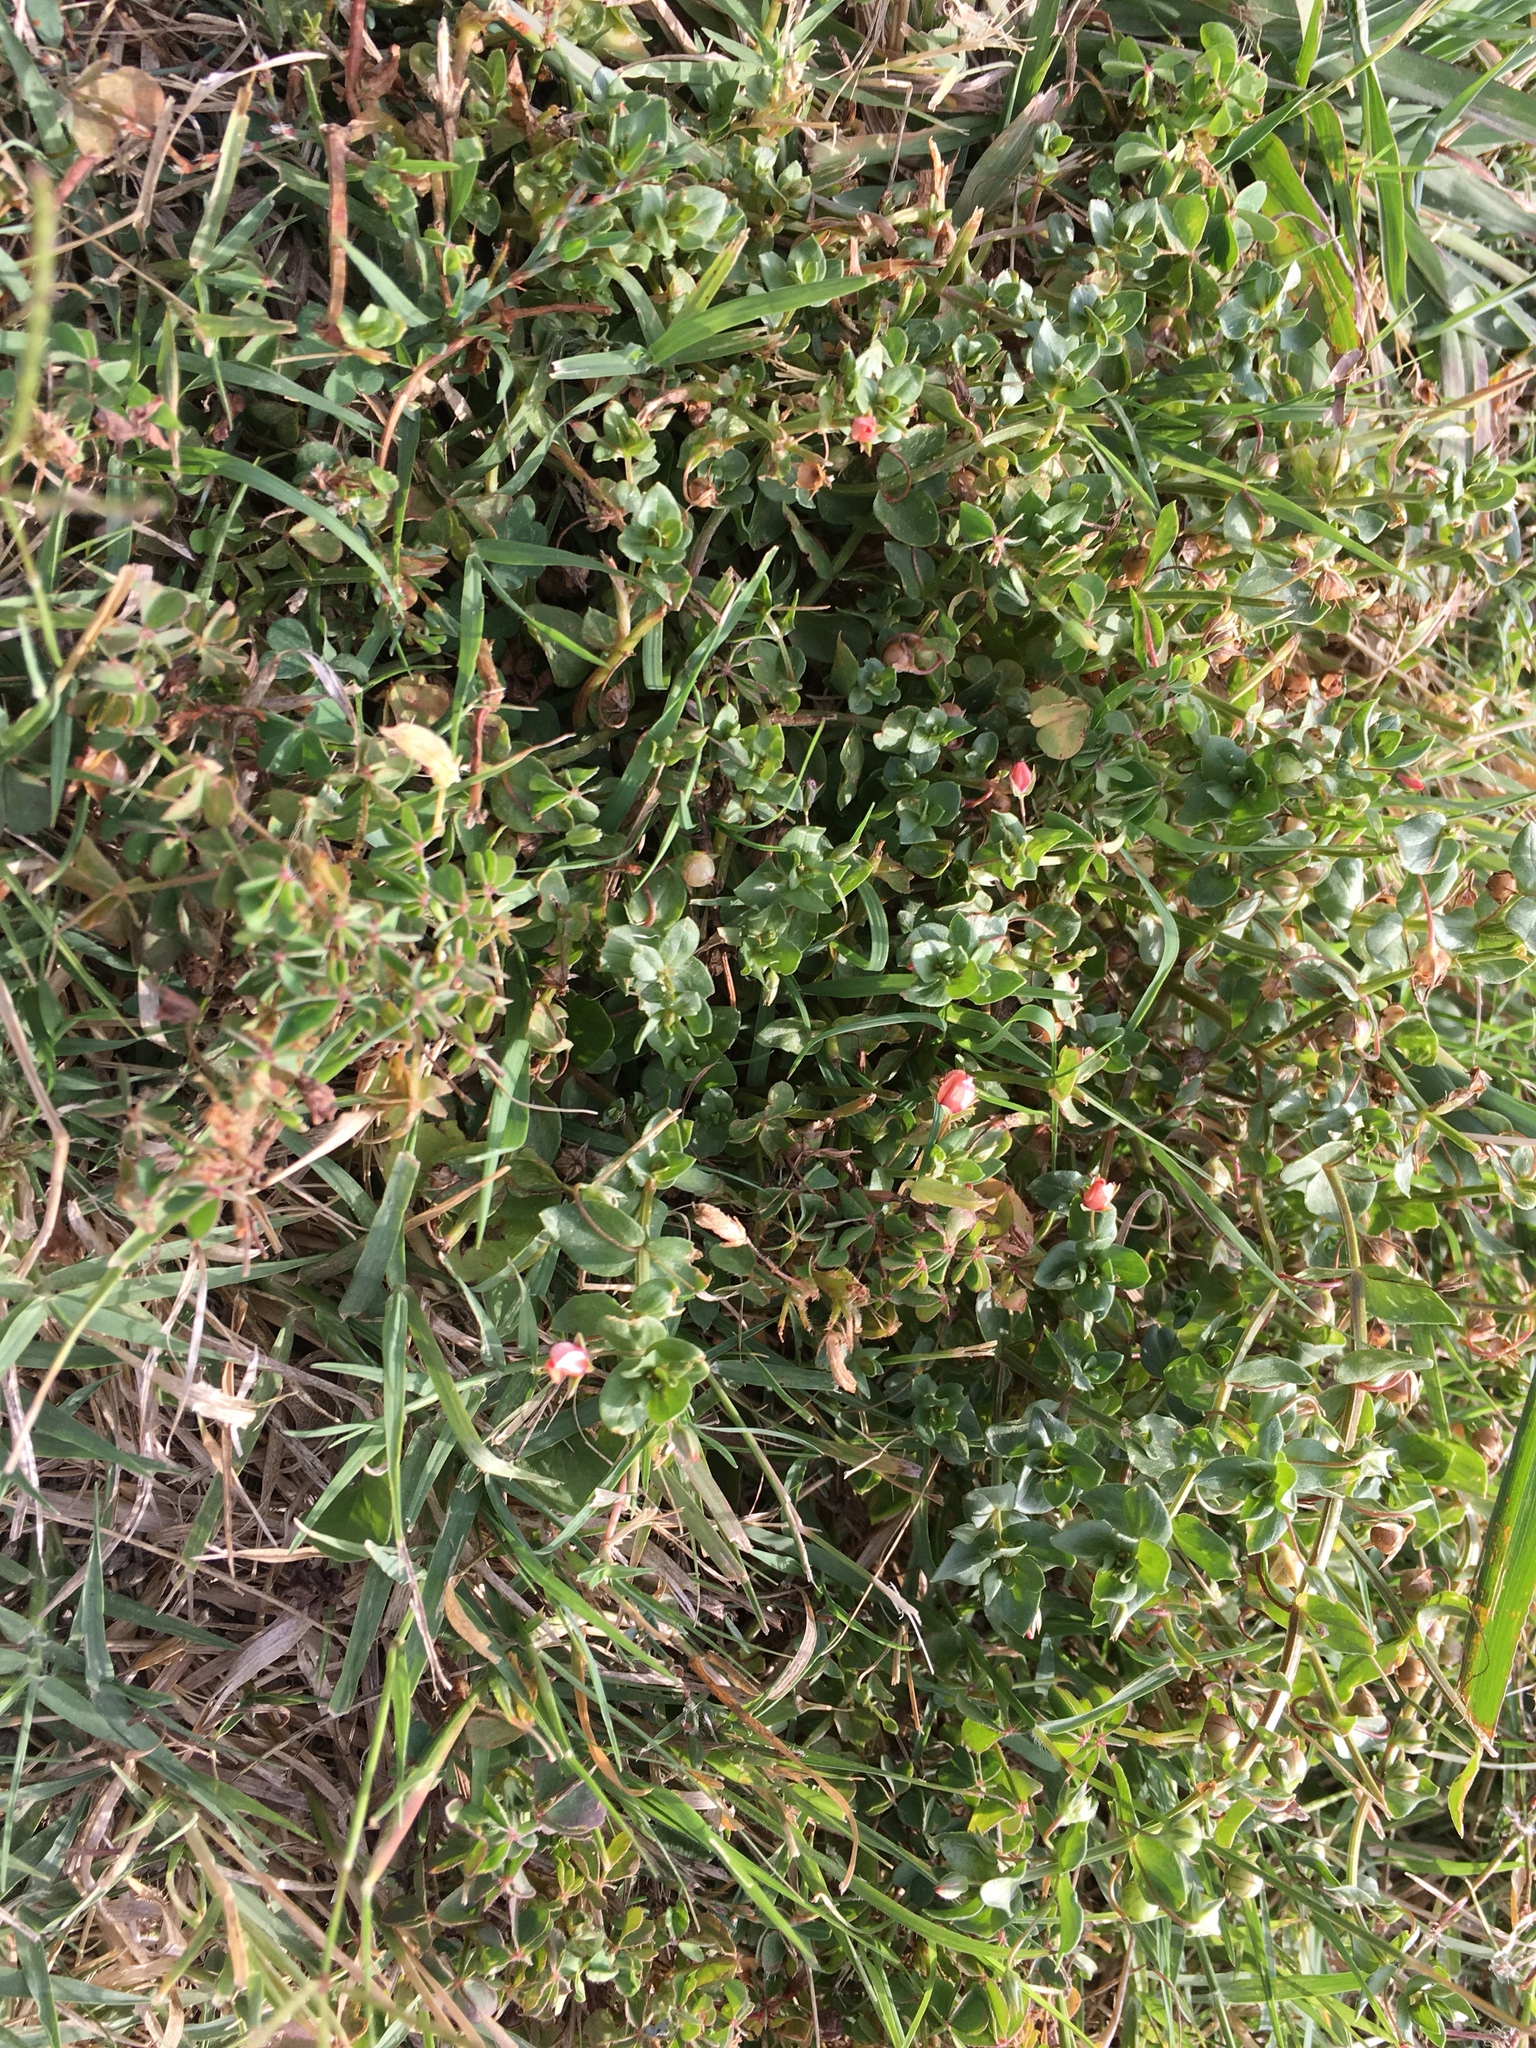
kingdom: Plantae
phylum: Tracheophyta
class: Magnoliopsida
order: Ericales
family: Primulaceae
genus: Lysimachia
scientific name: Lysimachia arvensis
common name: Scarlet pimpernel
